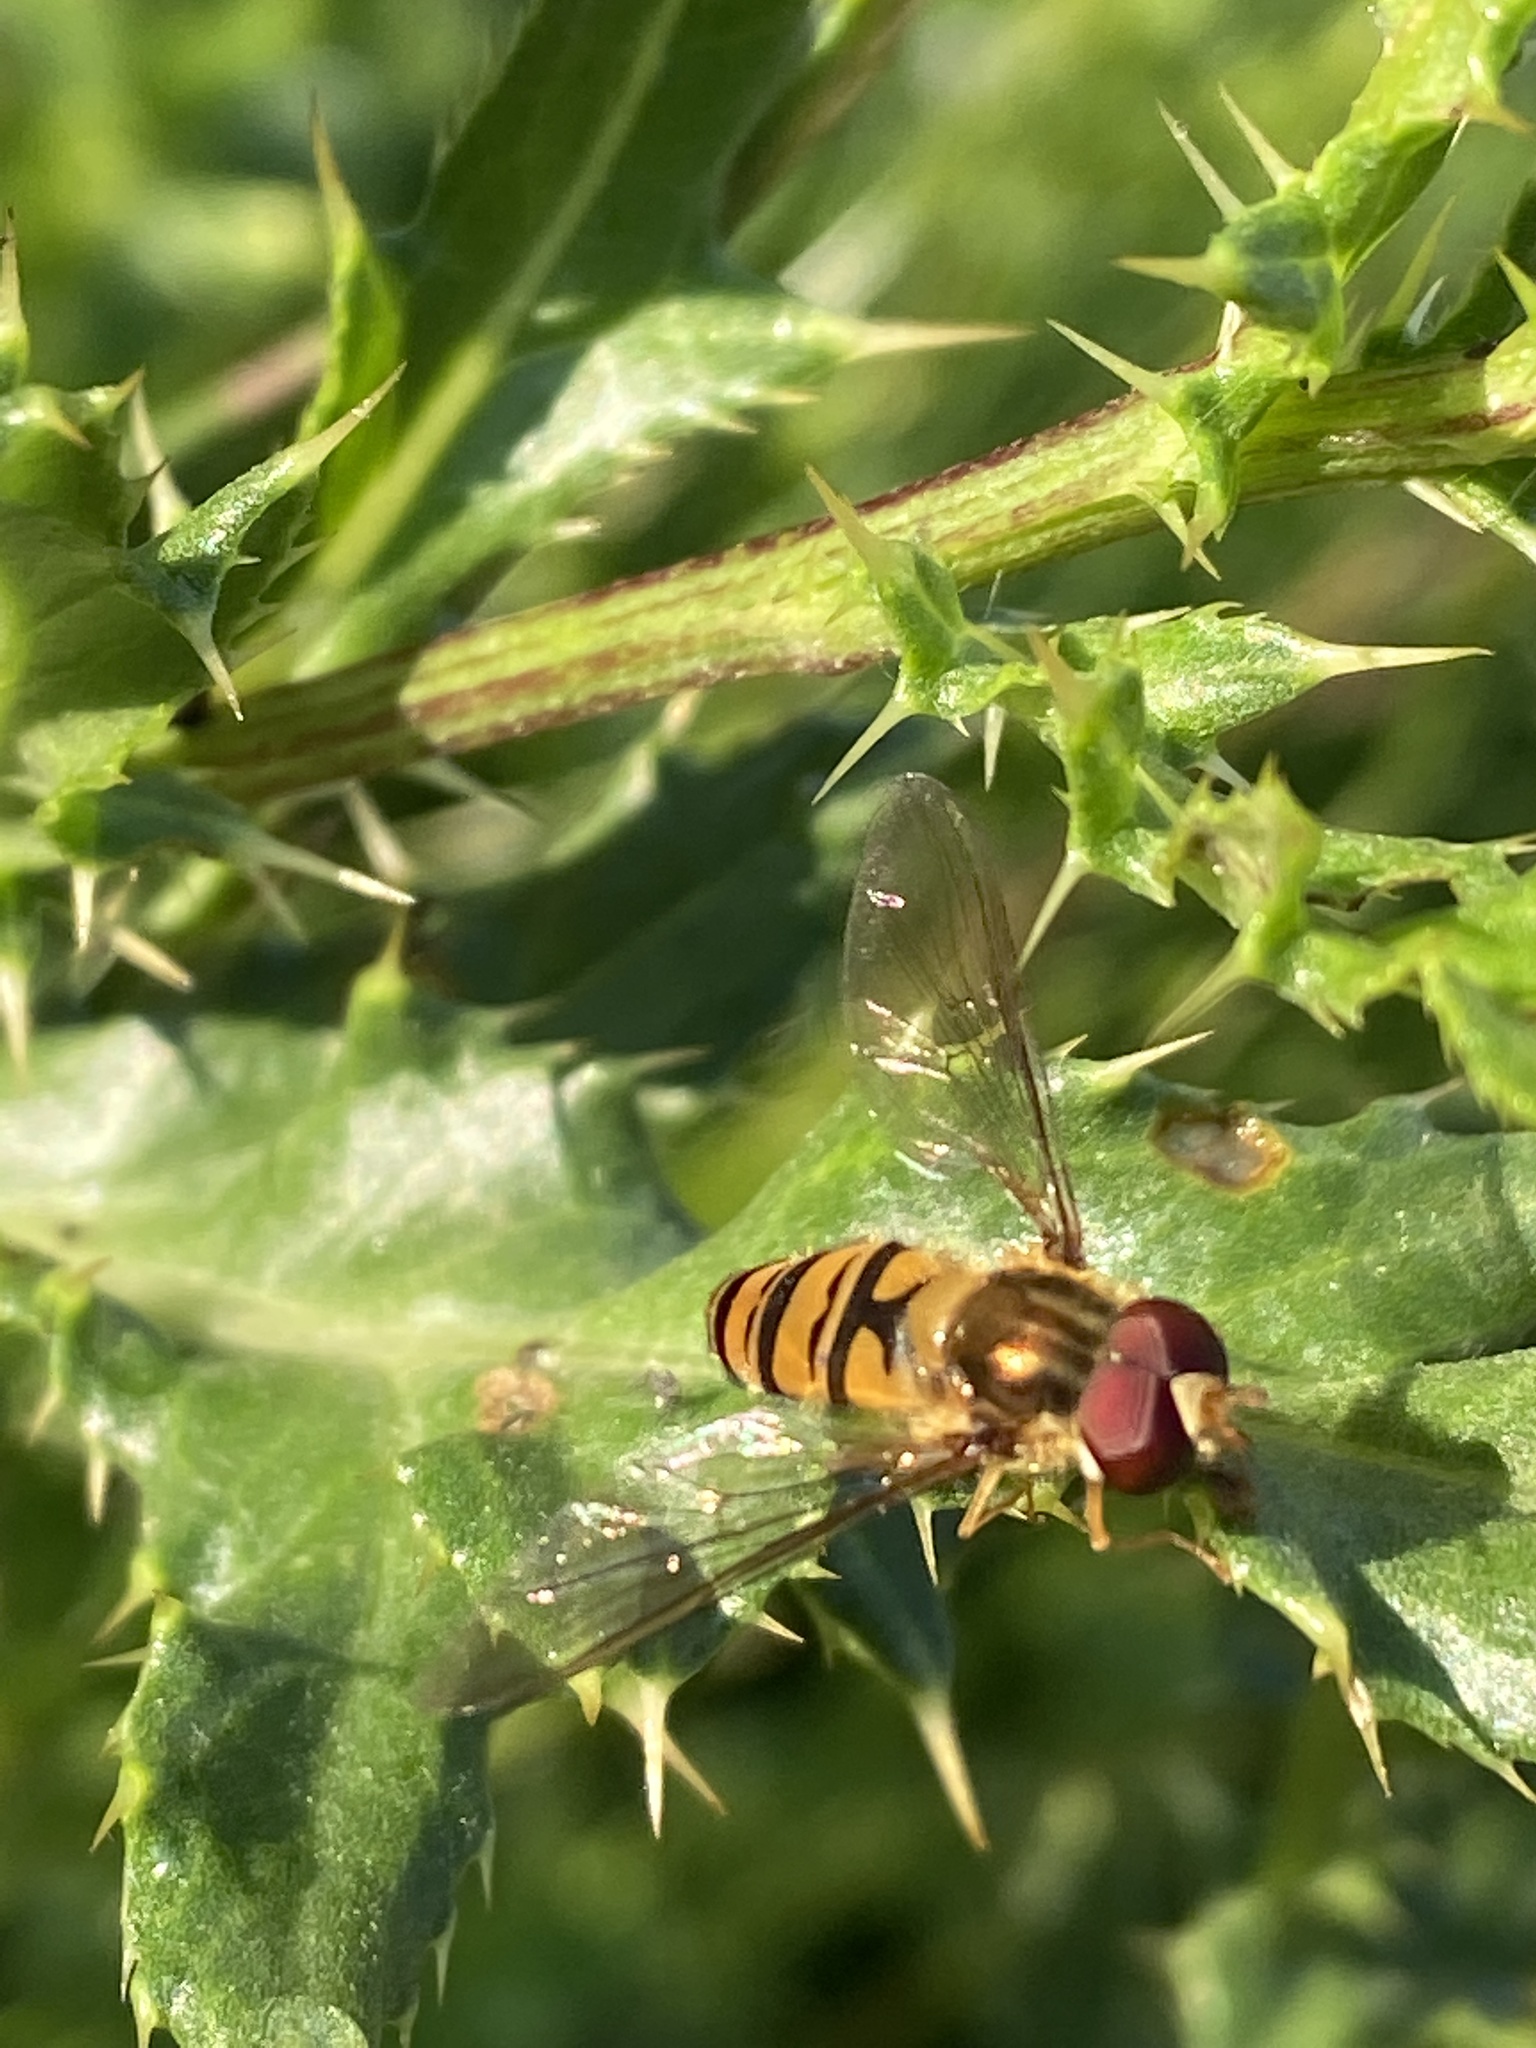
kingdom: Animalia
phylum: Arthropoda
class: Insecta
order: Diptera
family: Syrphidae
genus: Episyrphus
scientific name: Episyrphus balteatus
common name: Marmalade hoverfly
